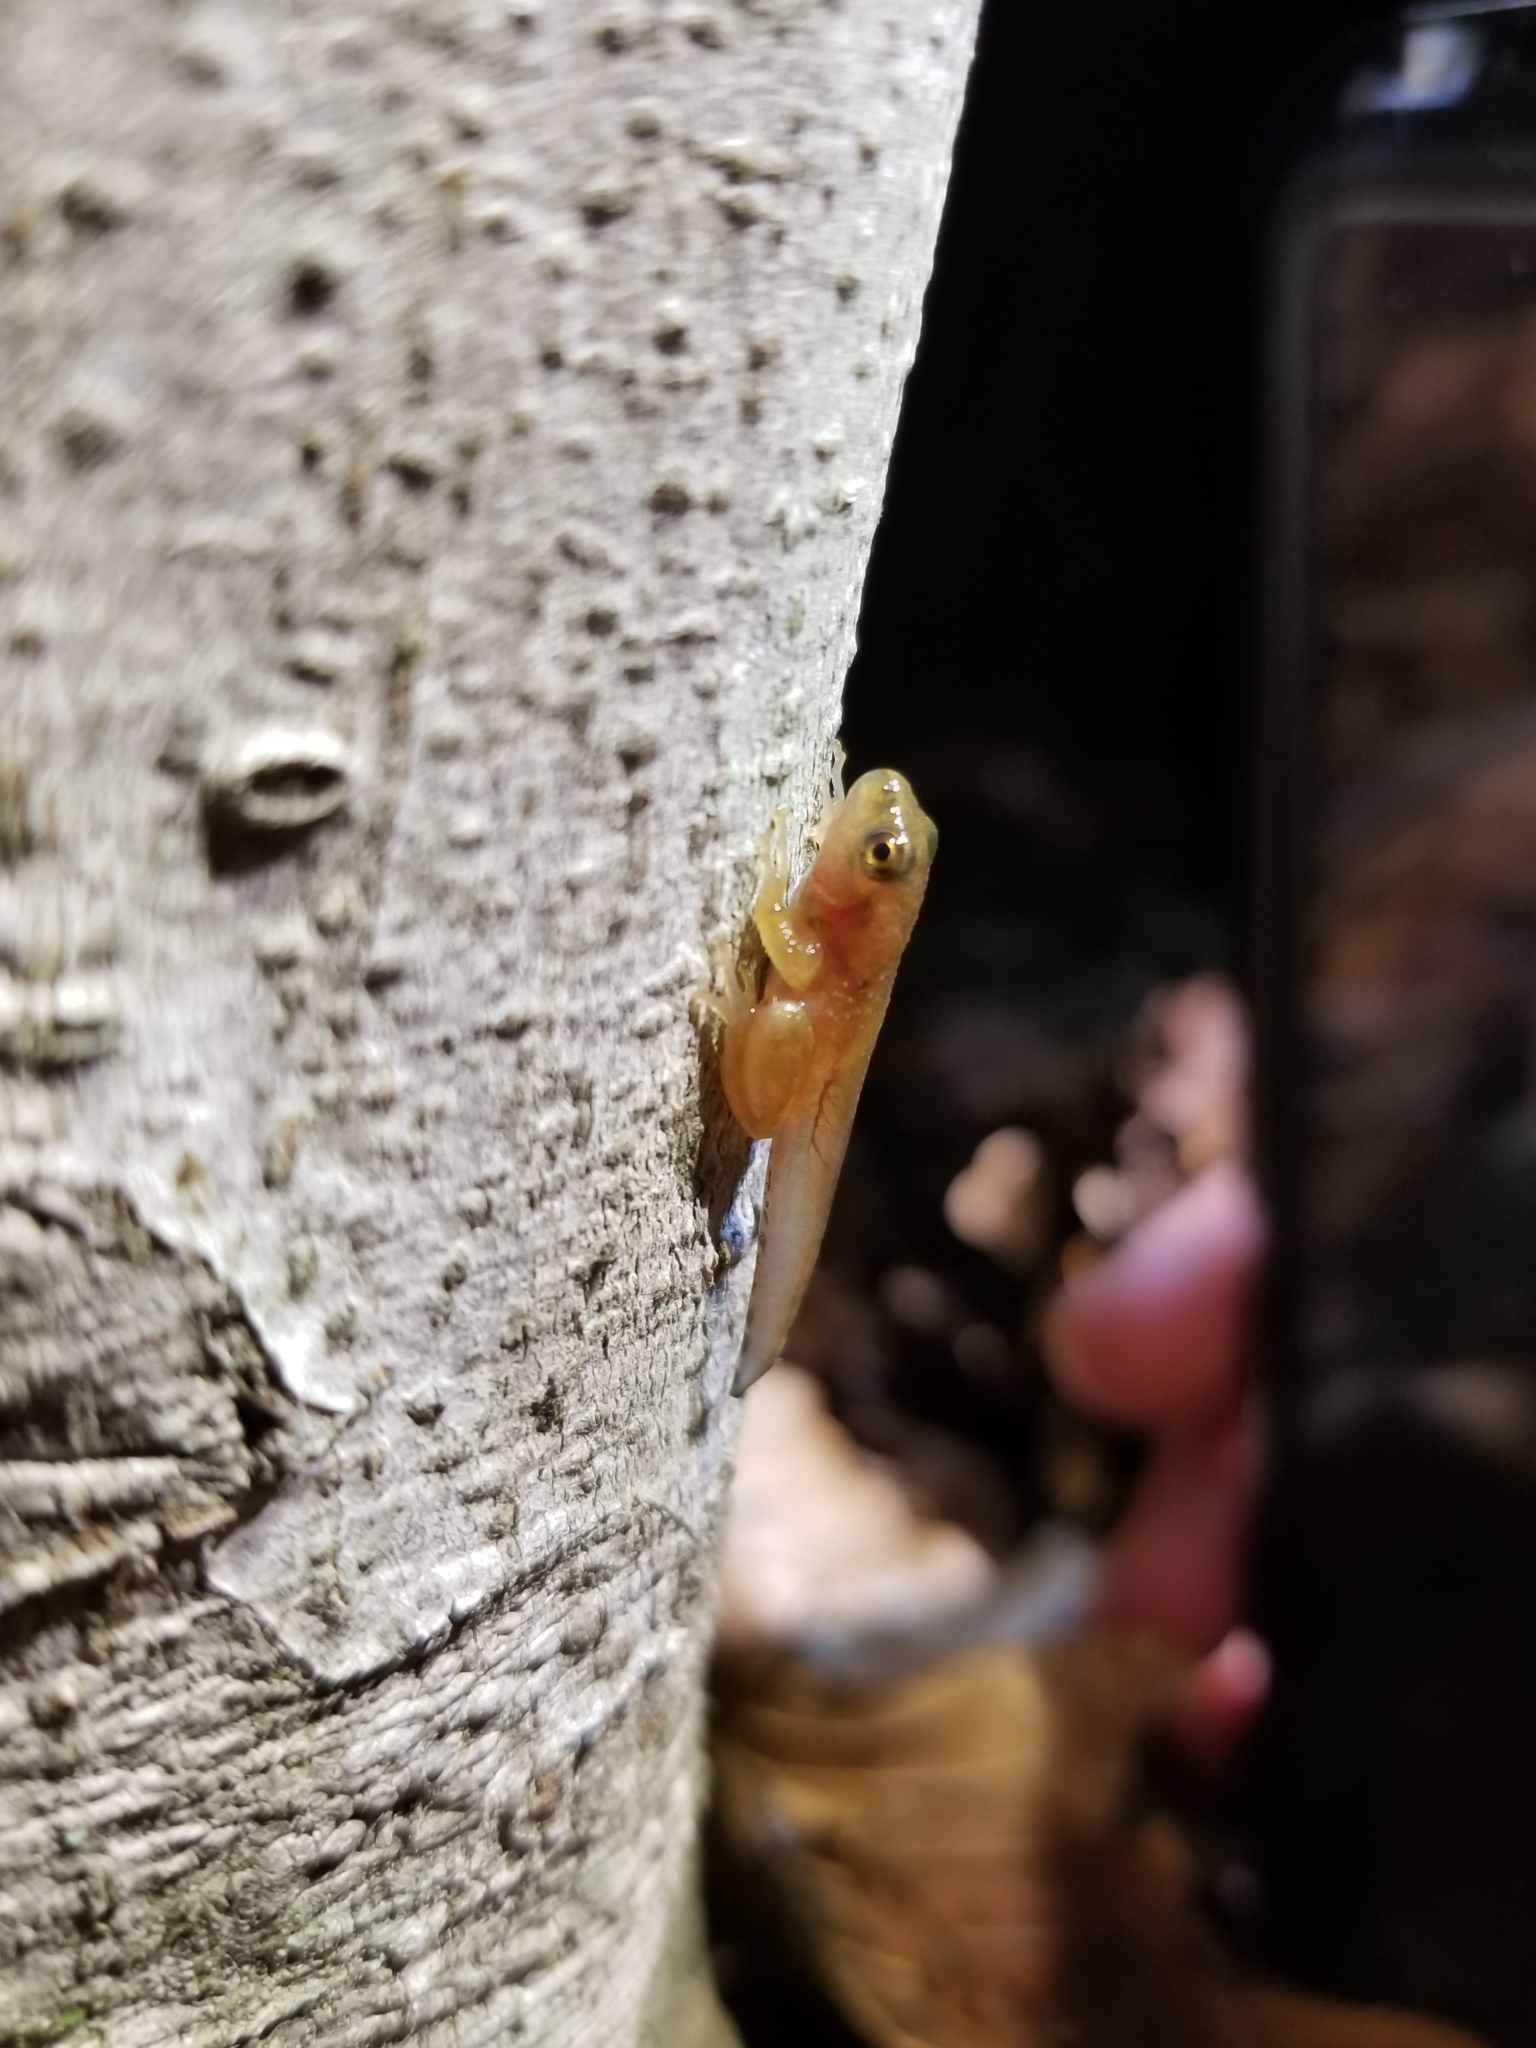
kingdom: Animalia
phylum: Chordata
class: Amphibia
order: Anura
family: Hylidae
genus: Pseudacris
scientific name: Pseudacris crucifer
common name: Spring peeper
